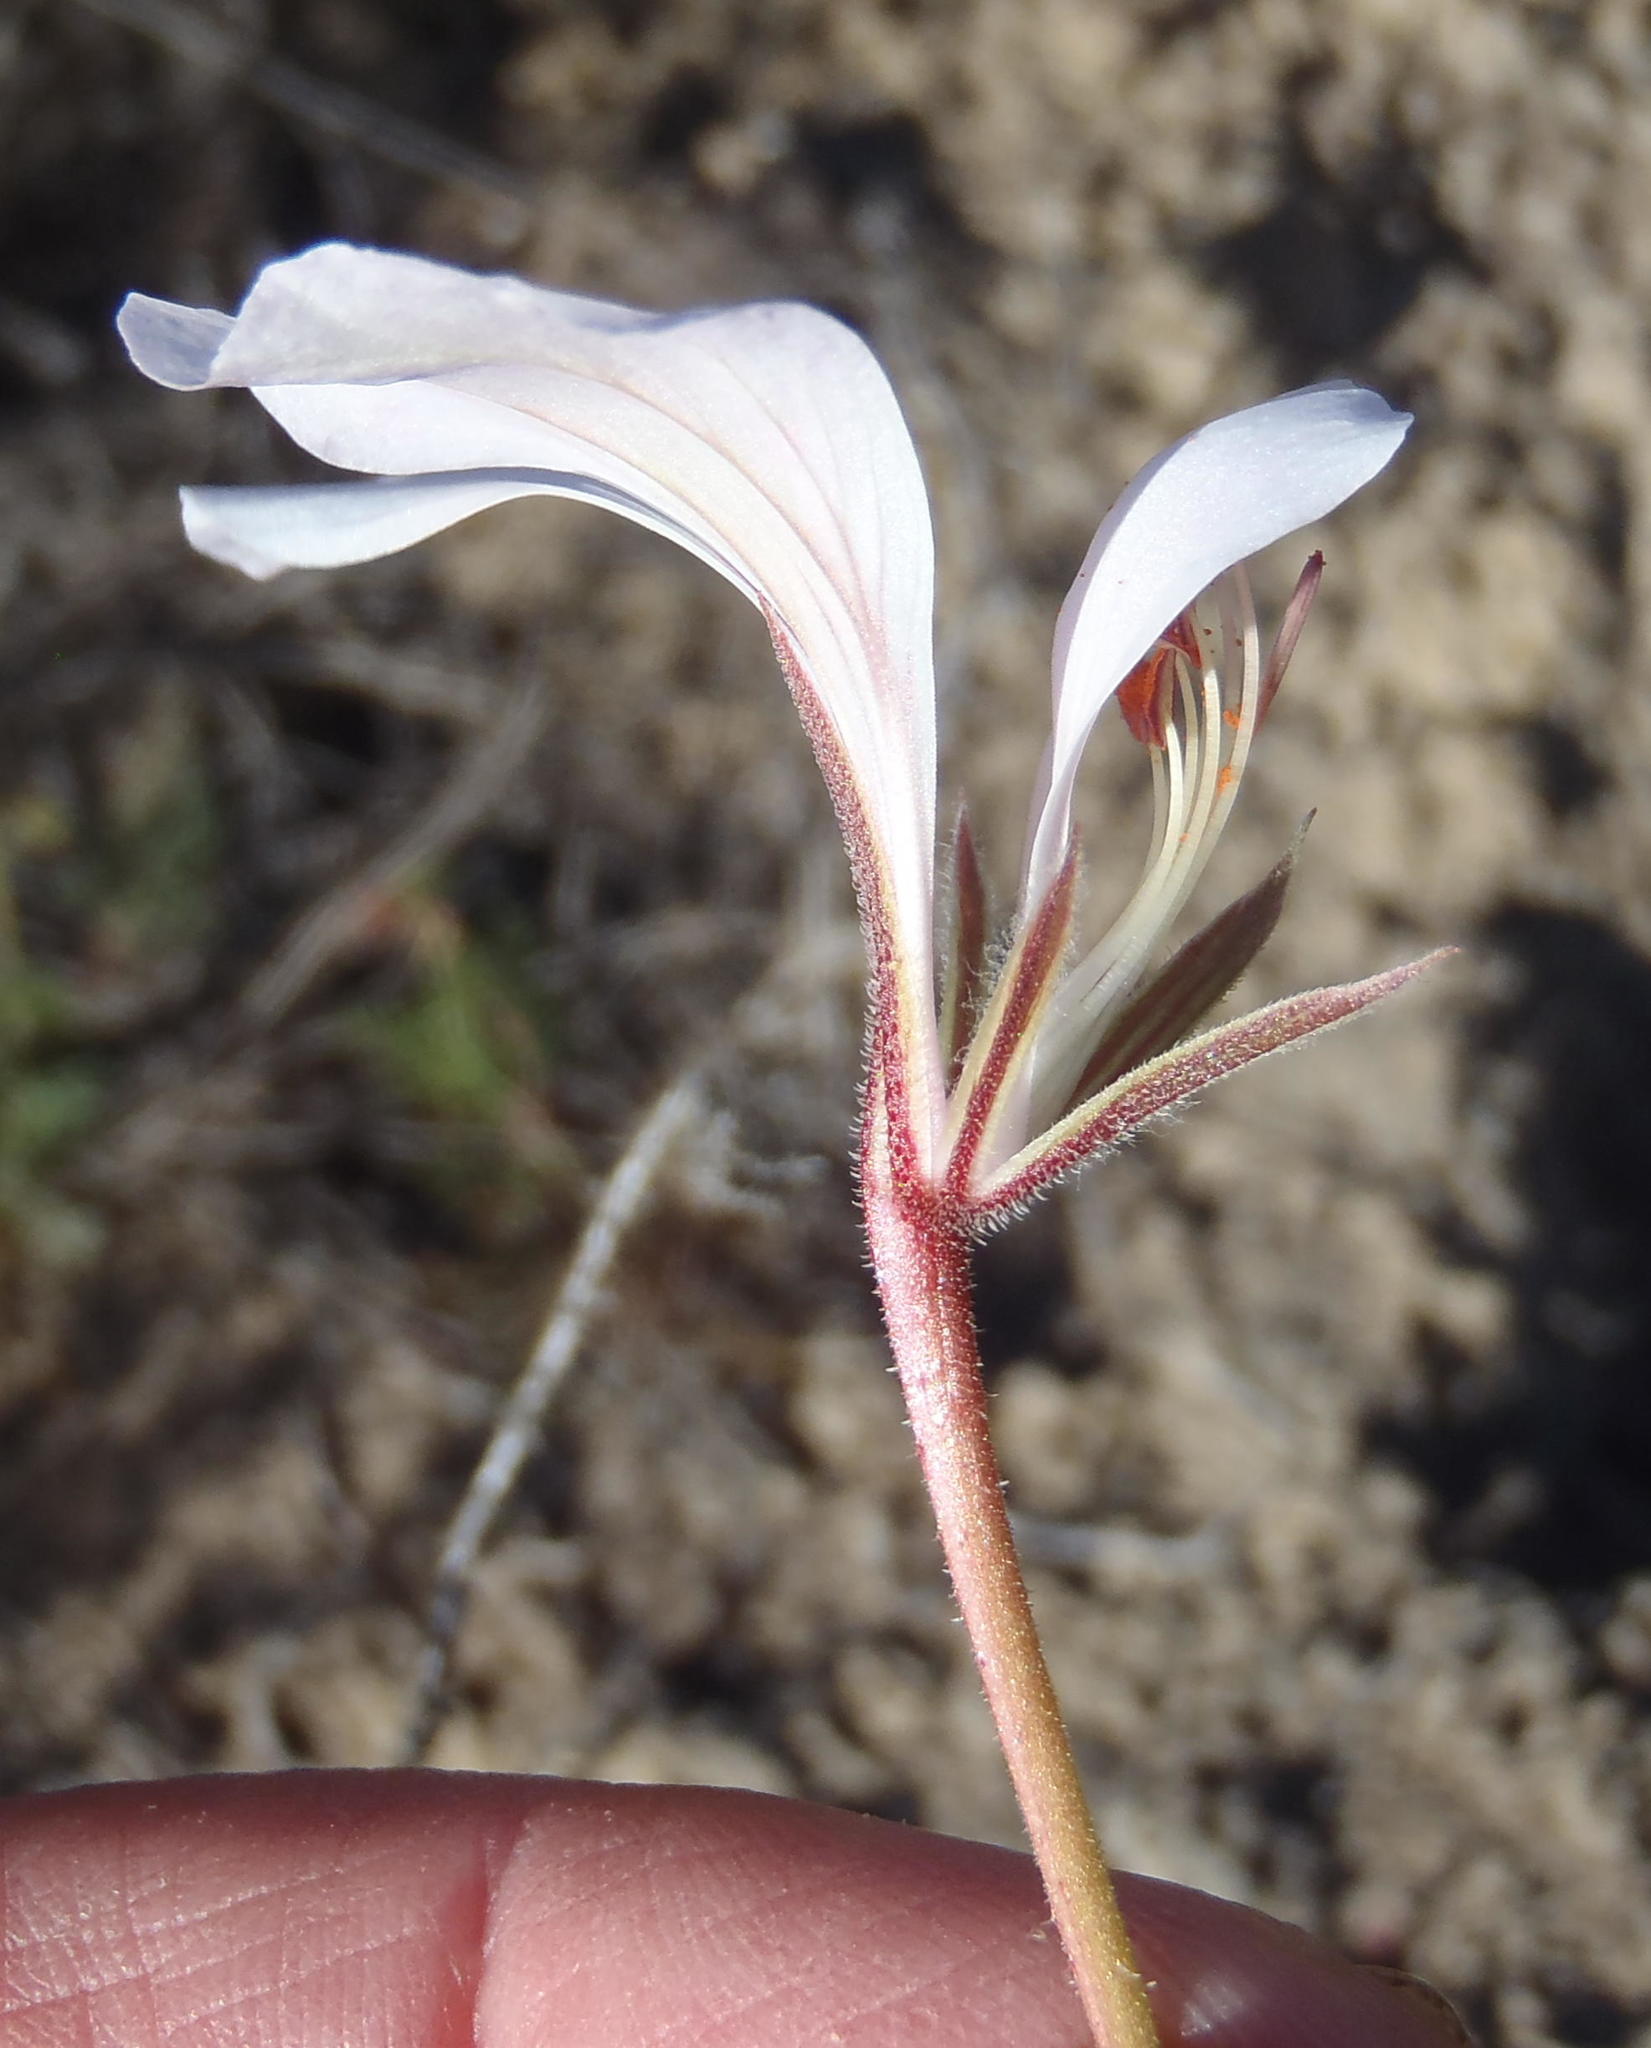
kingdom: Plantae
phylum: Tracheophyta
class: Magnoliopsida
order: Geraniales
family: Geraniaceae
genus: Pelargonium
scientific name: Pelargonium caucalifolium
